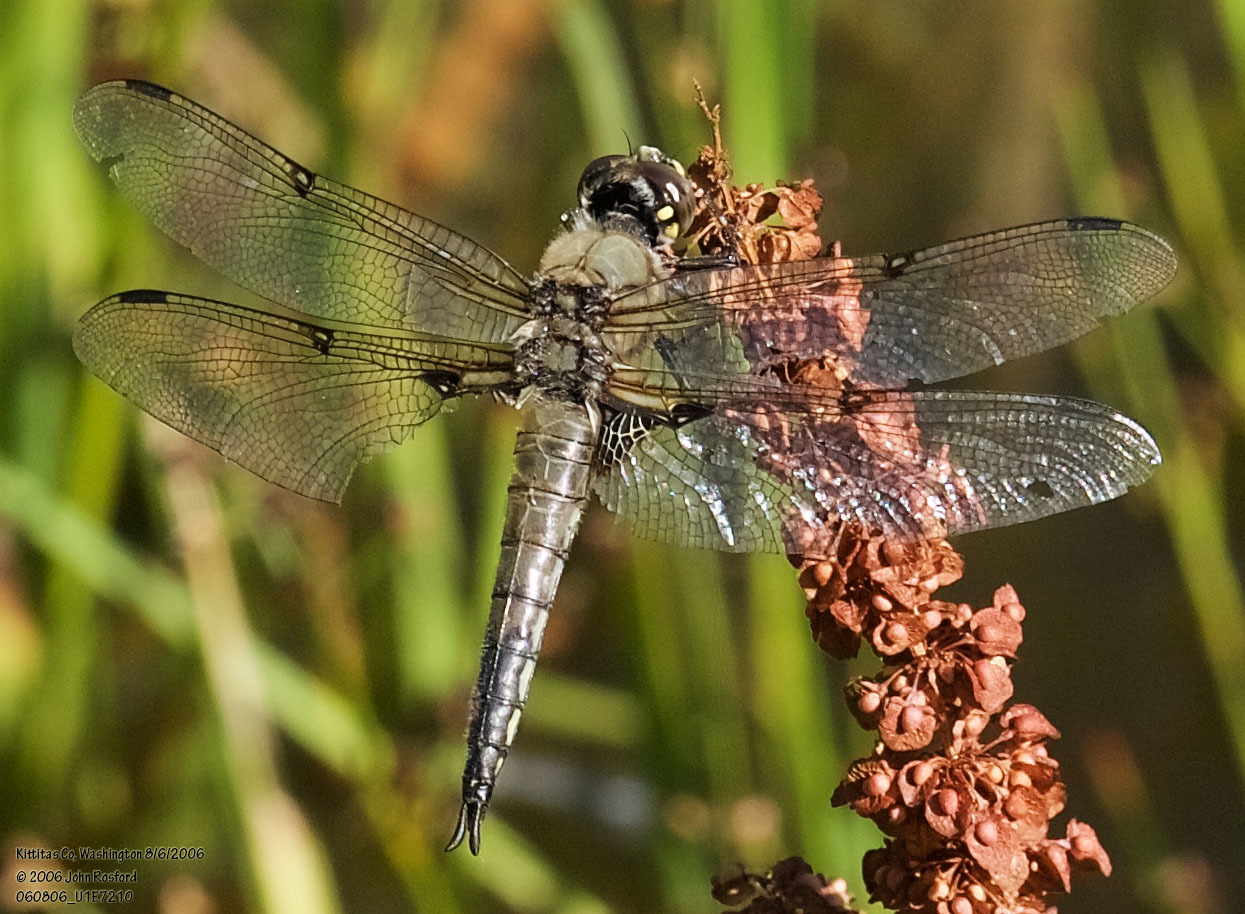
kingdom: Animalia
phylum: Arthropoda
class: Insecta
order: Odonata
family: Libellulidae
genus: Libellula
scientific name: Libellula quadrimaculata
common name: Four-spotted chaser
